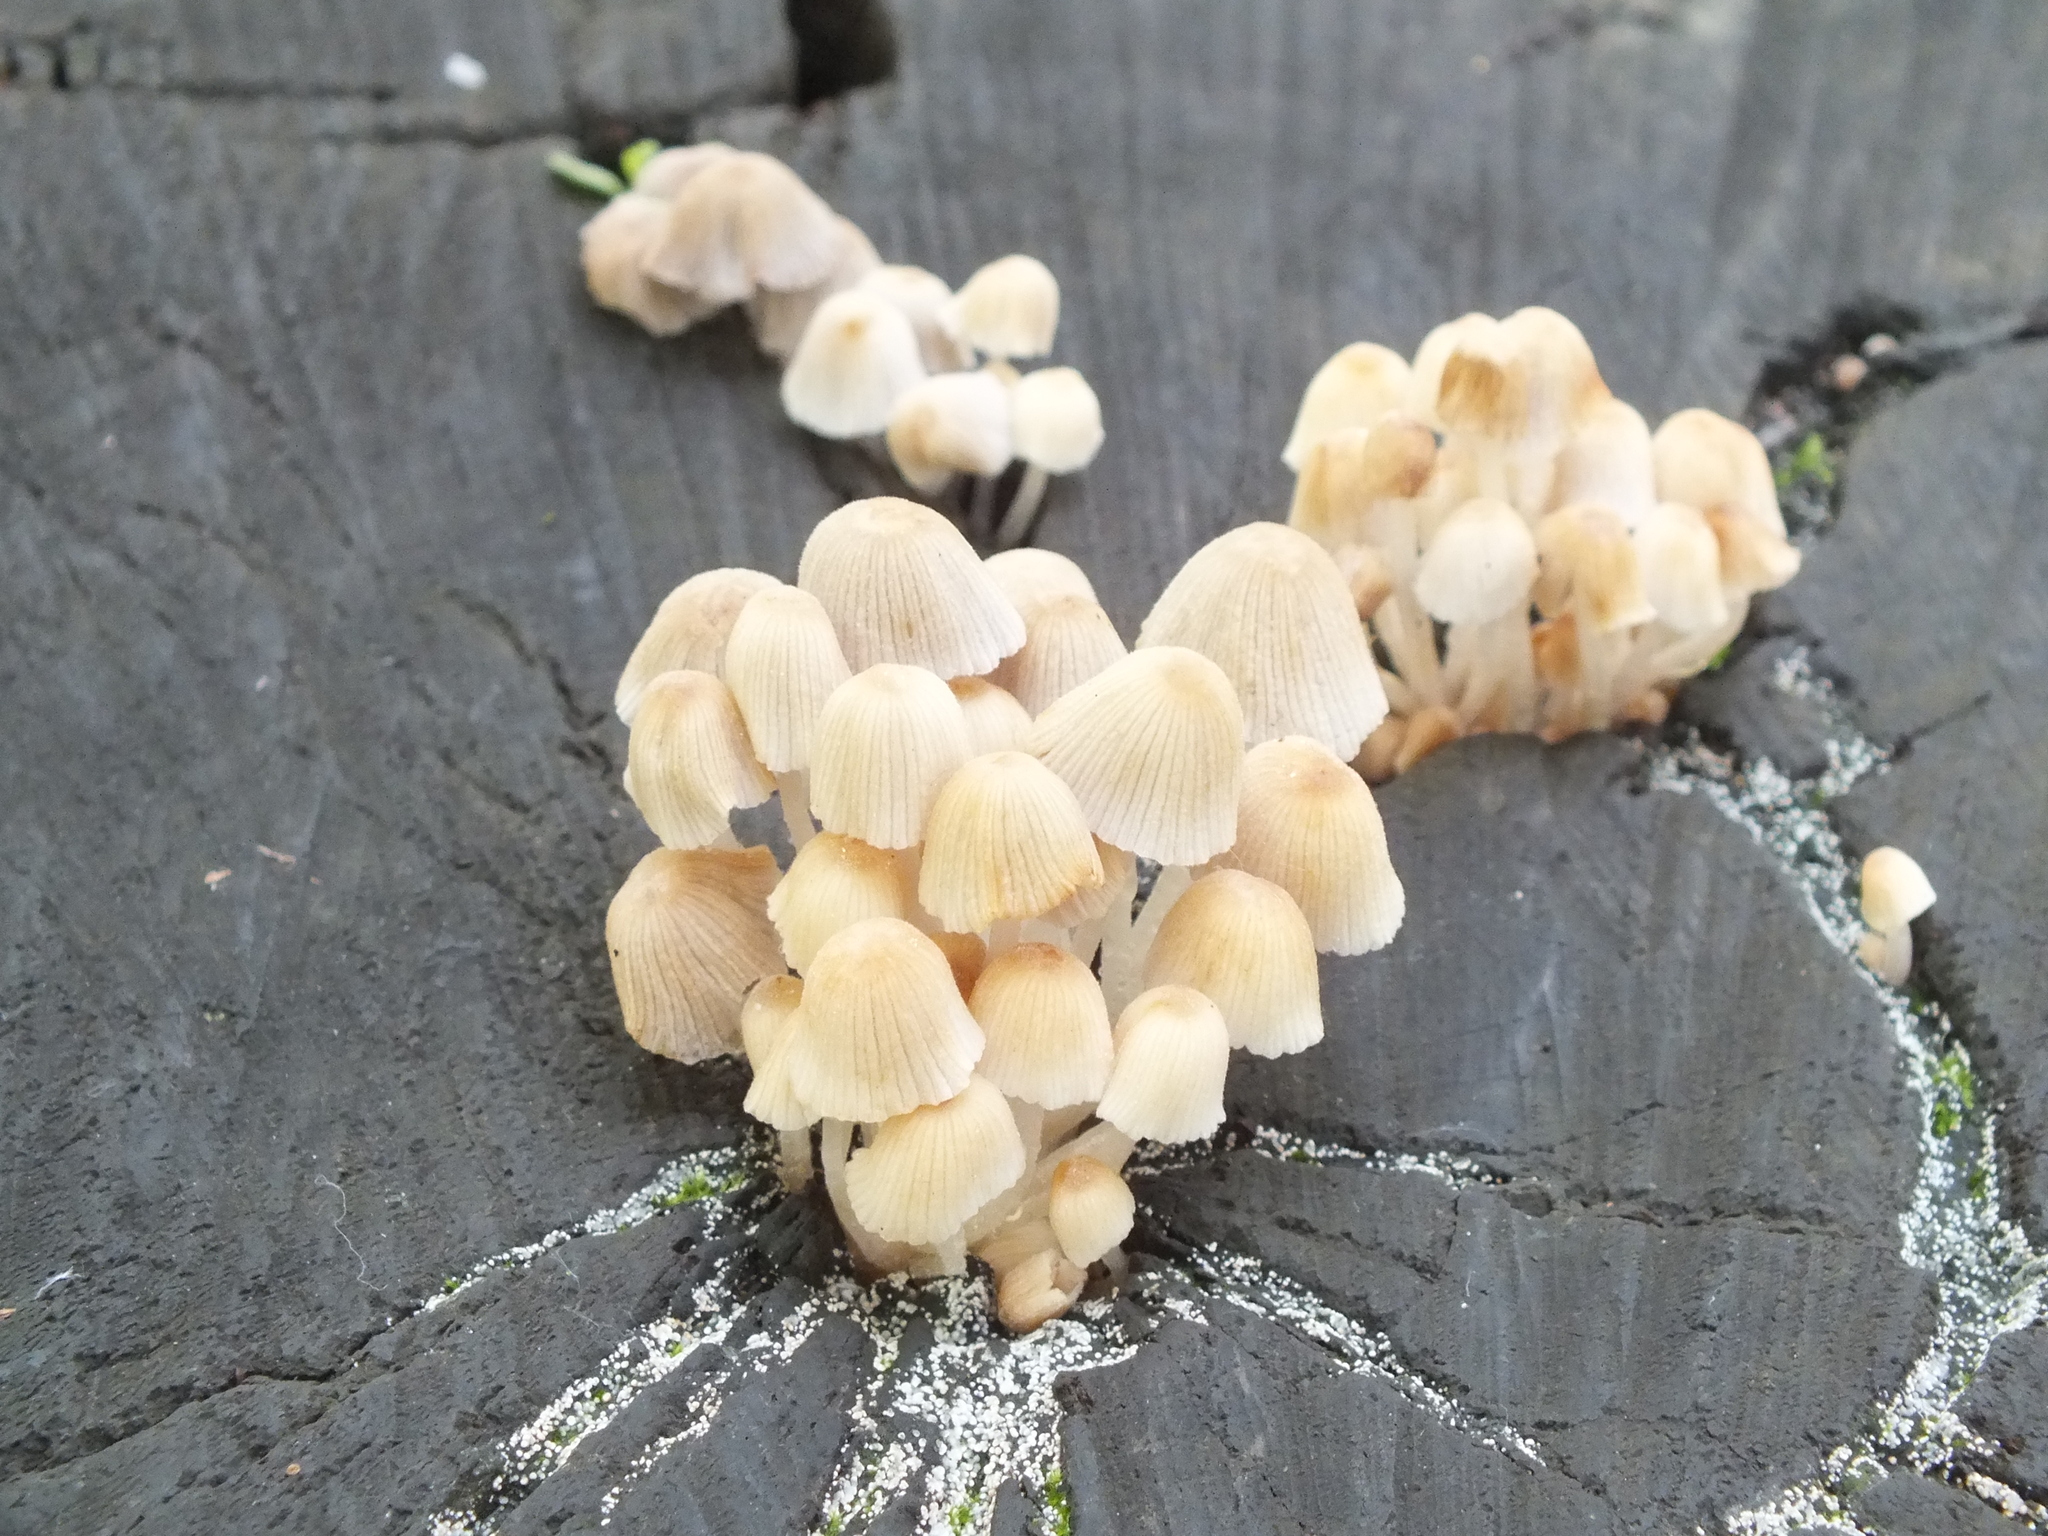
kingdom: Fungi
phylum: Basidiomycota
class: Agaricomycetes
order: Agaricales
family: Psathyrellaceae
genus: Coprinellus
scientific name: Coprinellus disseminatus
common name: Fairies' bonnets
